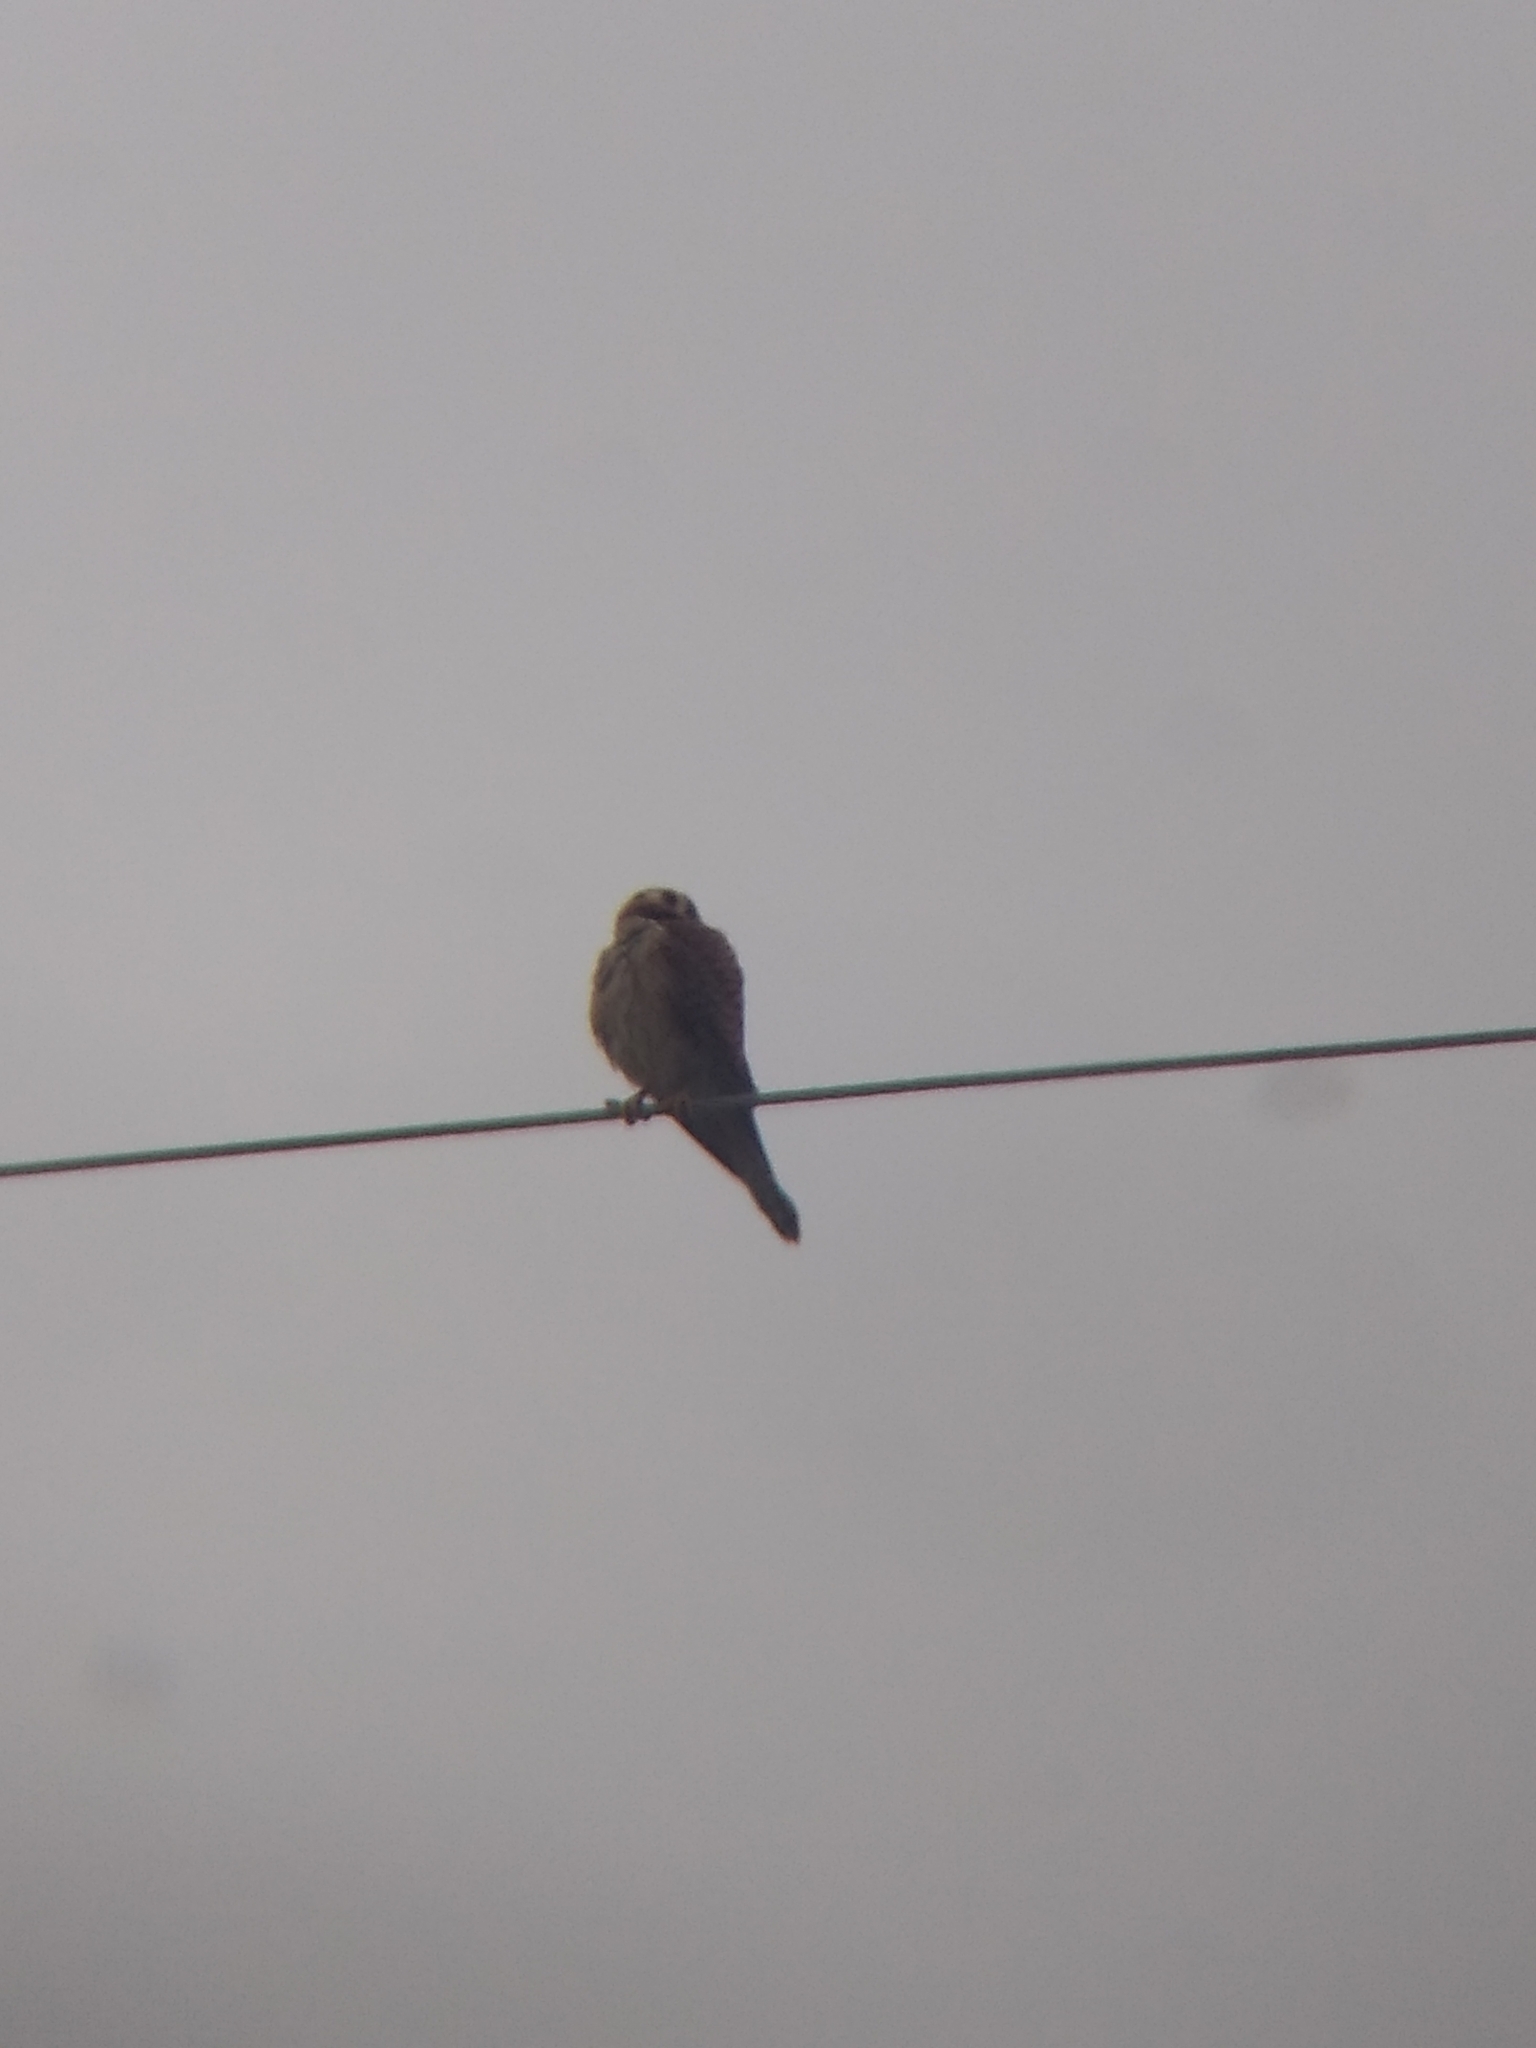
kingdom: Animalia
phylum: Chordata
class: Aves
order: Falconiformes
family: Falconidae
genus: Falco
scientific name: Falco sparverius
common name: American kestrel
